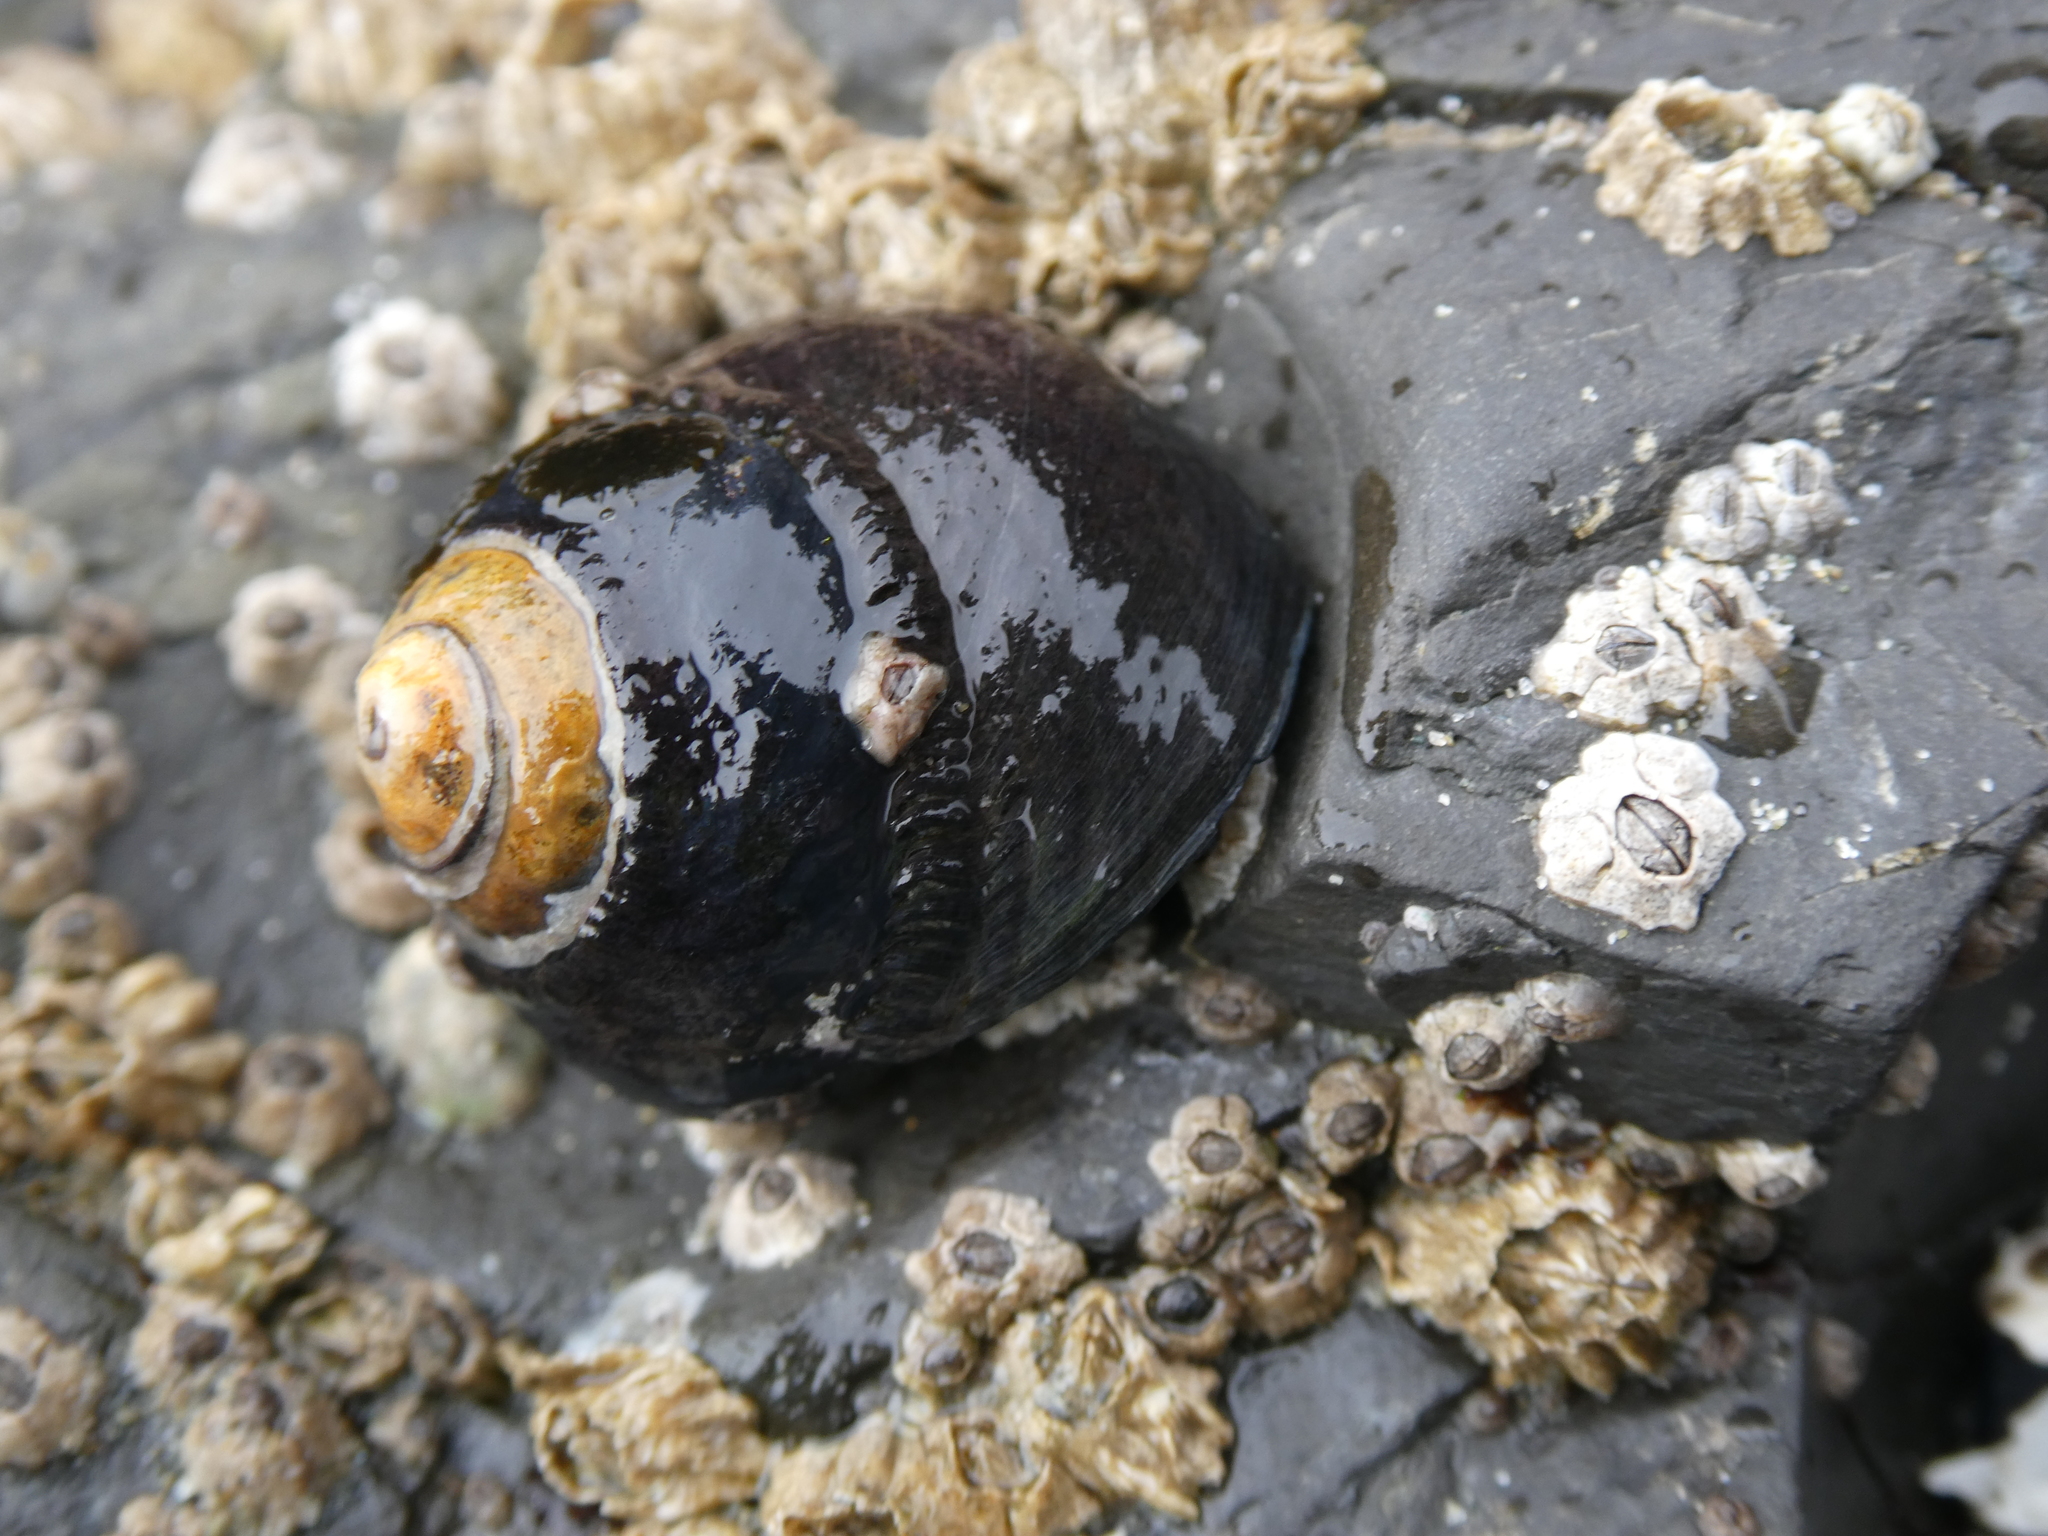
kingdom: Animalia
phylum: Mollusca
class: Gastropoda
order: Trochida
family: Tegulidae
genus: Tegula
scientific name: Tegula funebralis
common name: Black tegula
